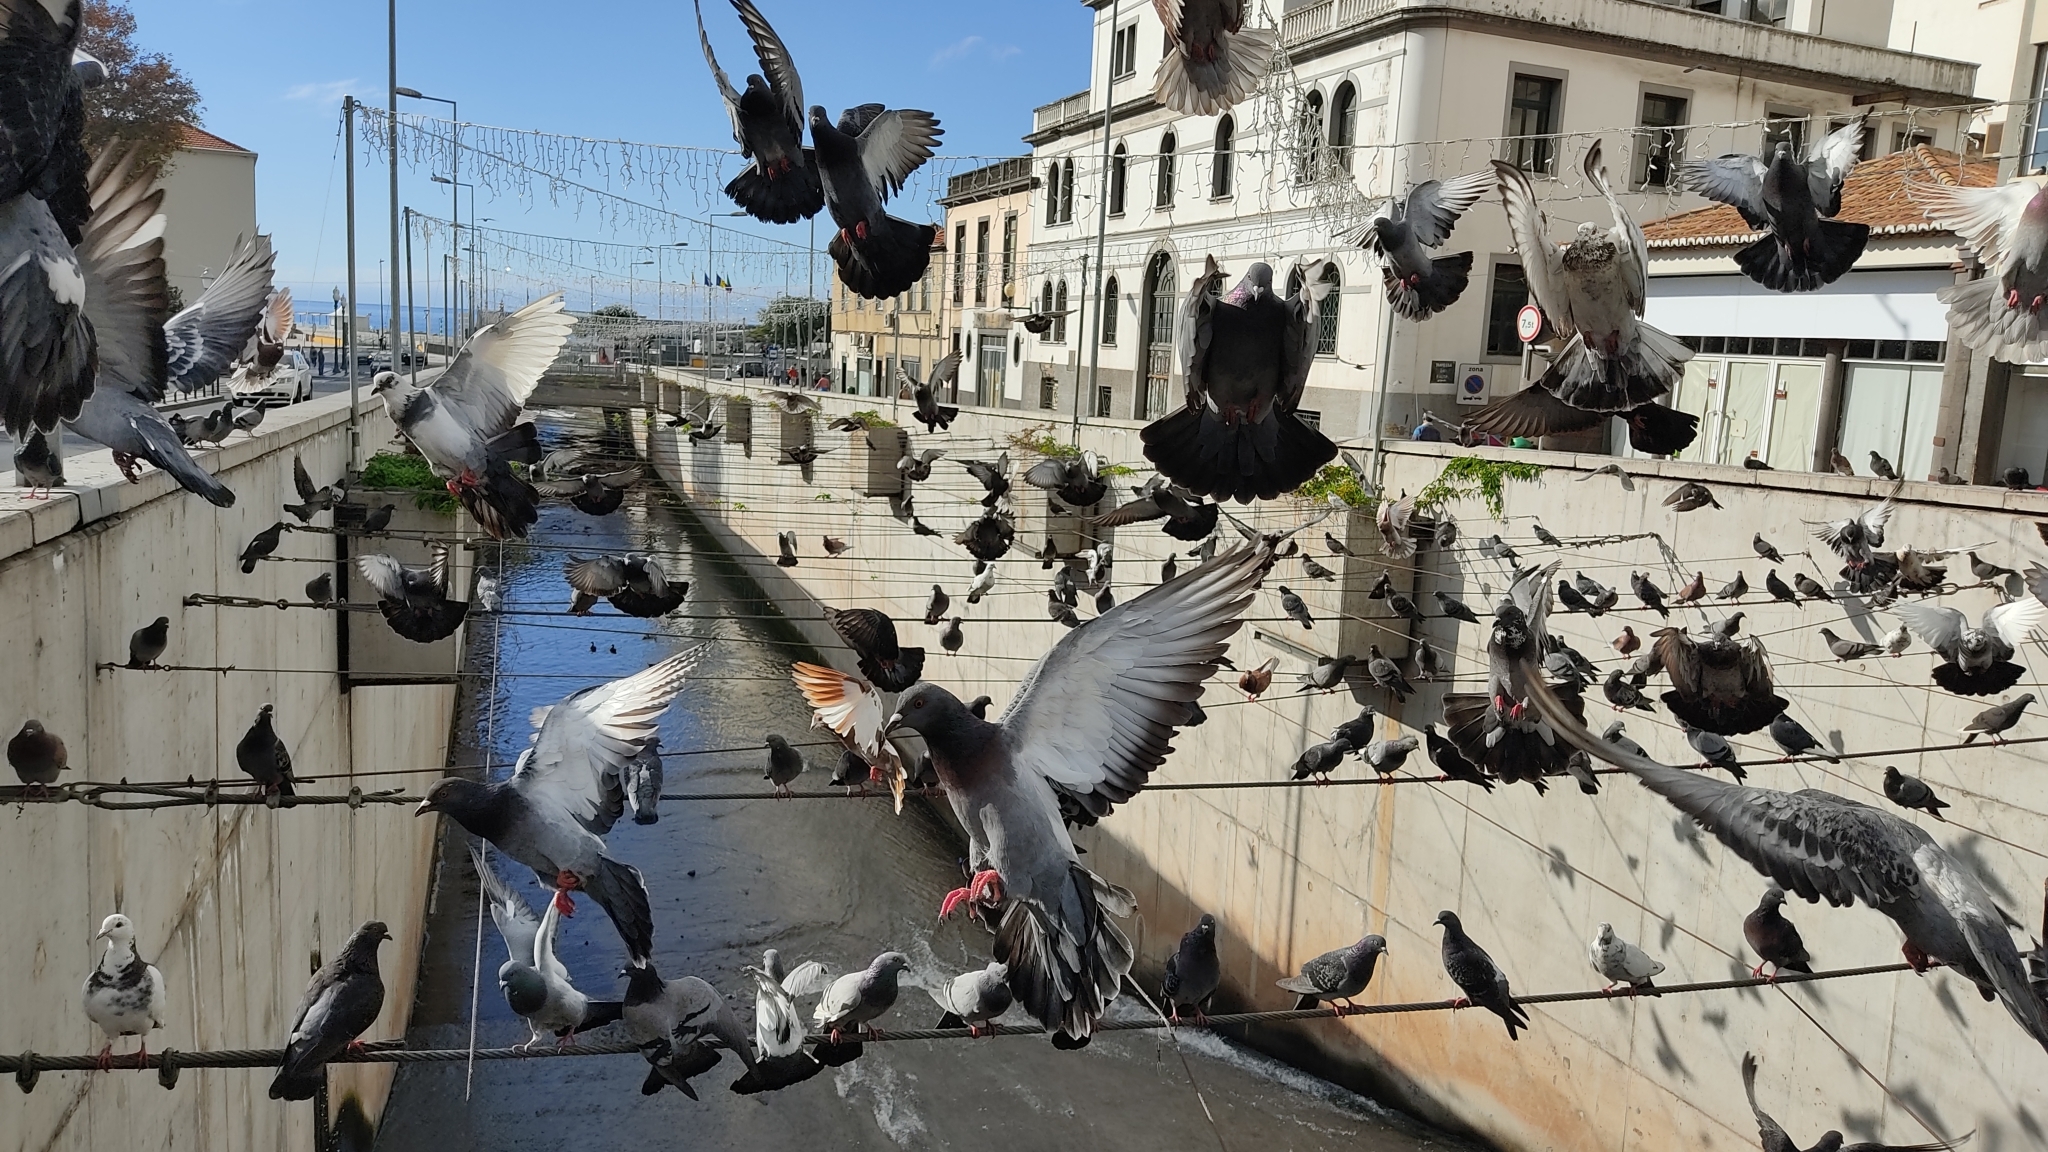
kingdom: Animalia
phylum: Chordata
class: Aves
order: Columbiformes
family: Columbidae
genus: Columba
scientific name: Columba livia
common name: Rock pigeon
